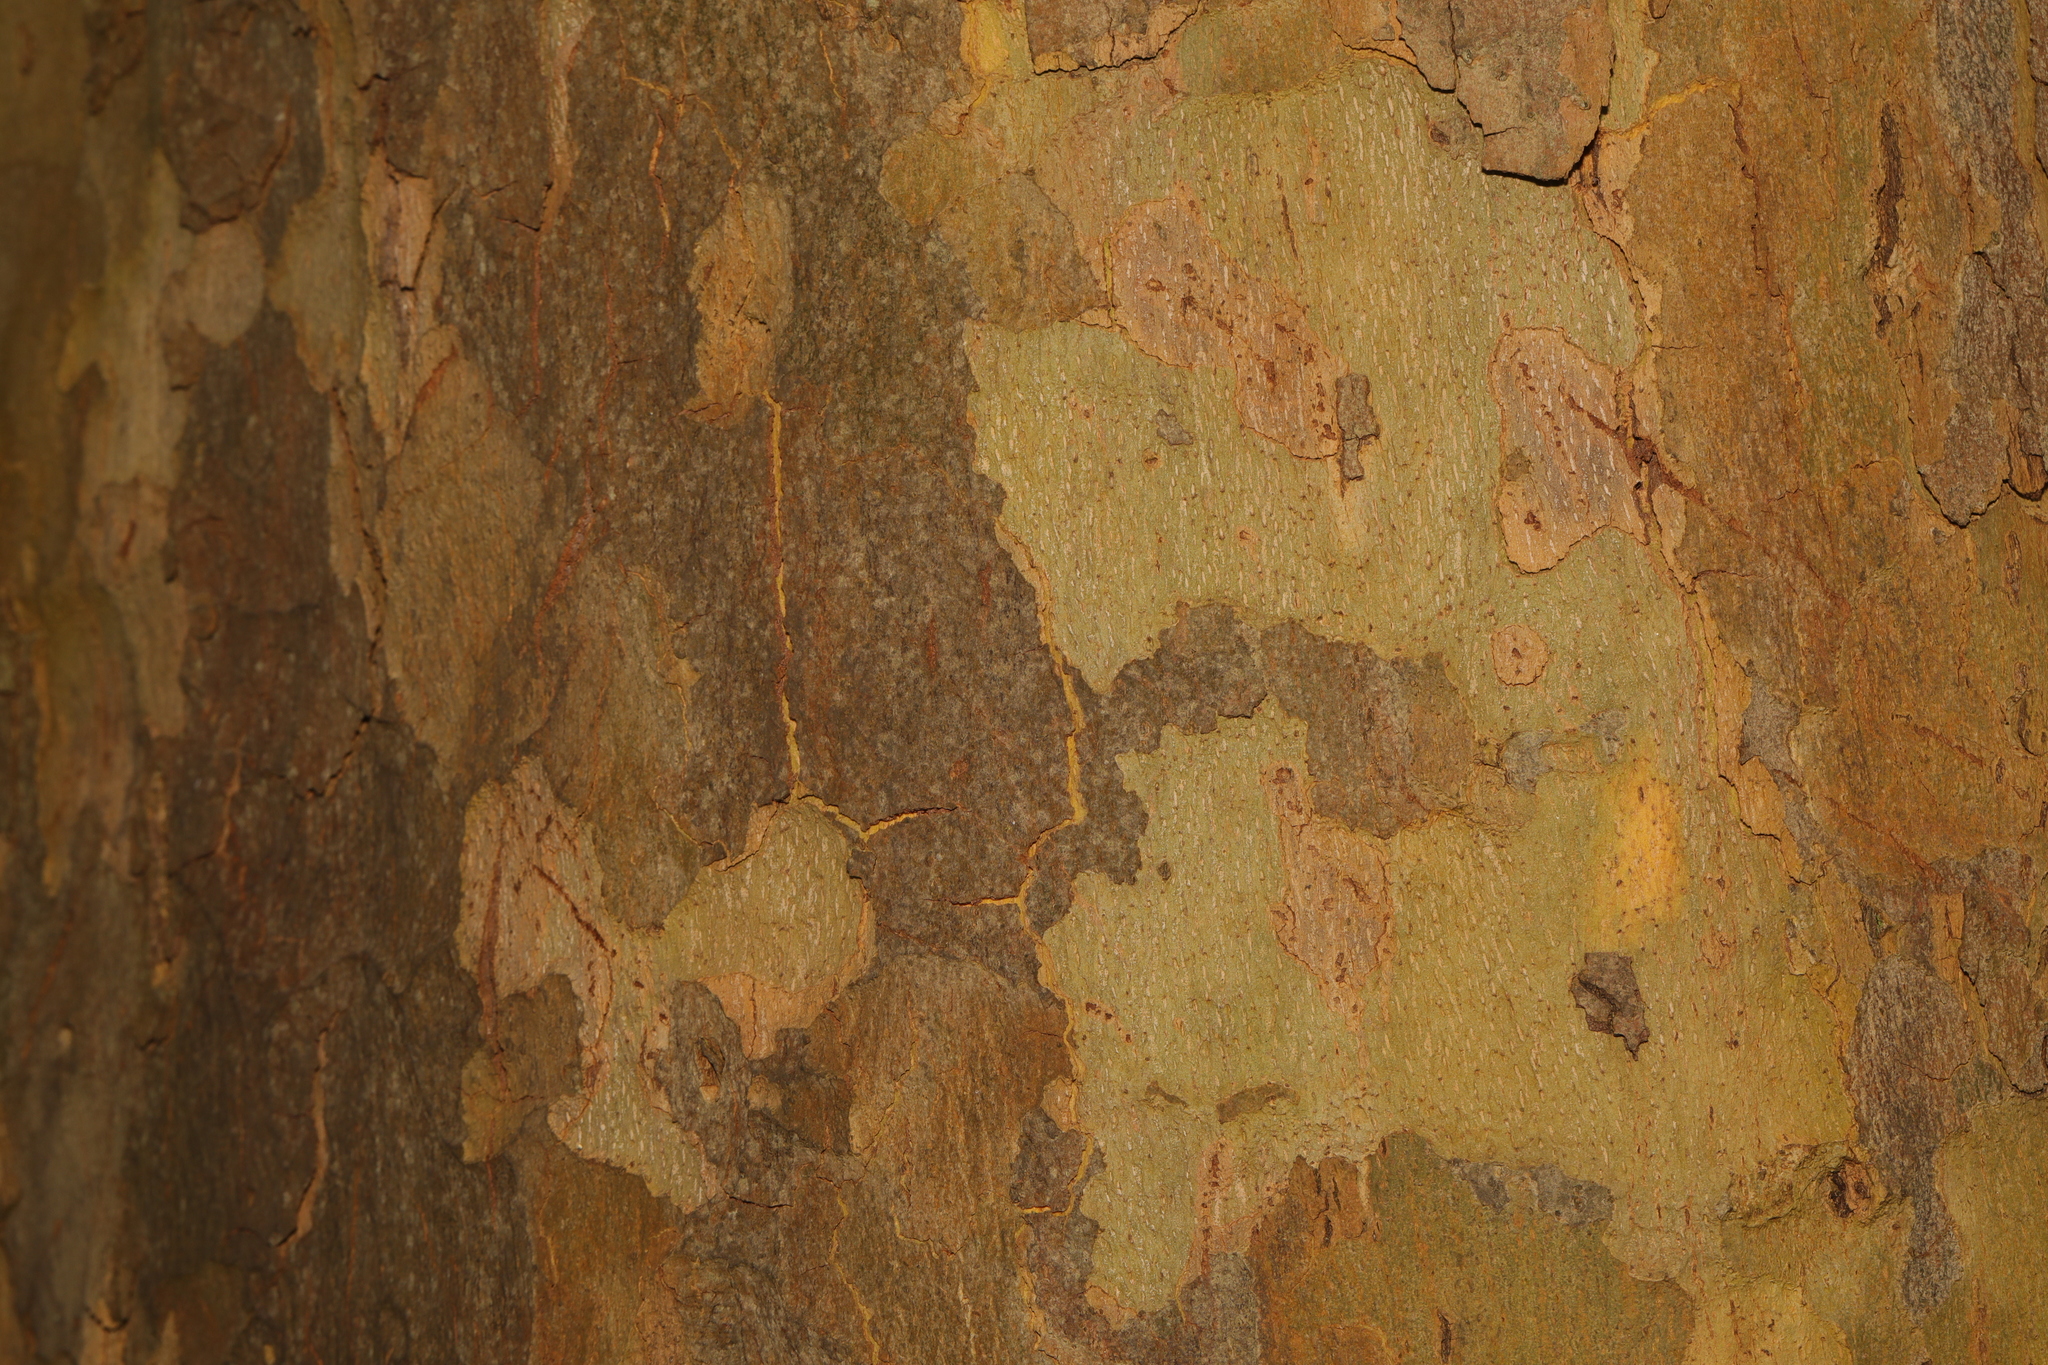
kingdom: Plantae
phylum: Tracheophyta
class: Magnoliopsida
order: Proteales
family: Platanaceae
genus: Platanus
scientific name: Platanus hispanica
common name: London plane
